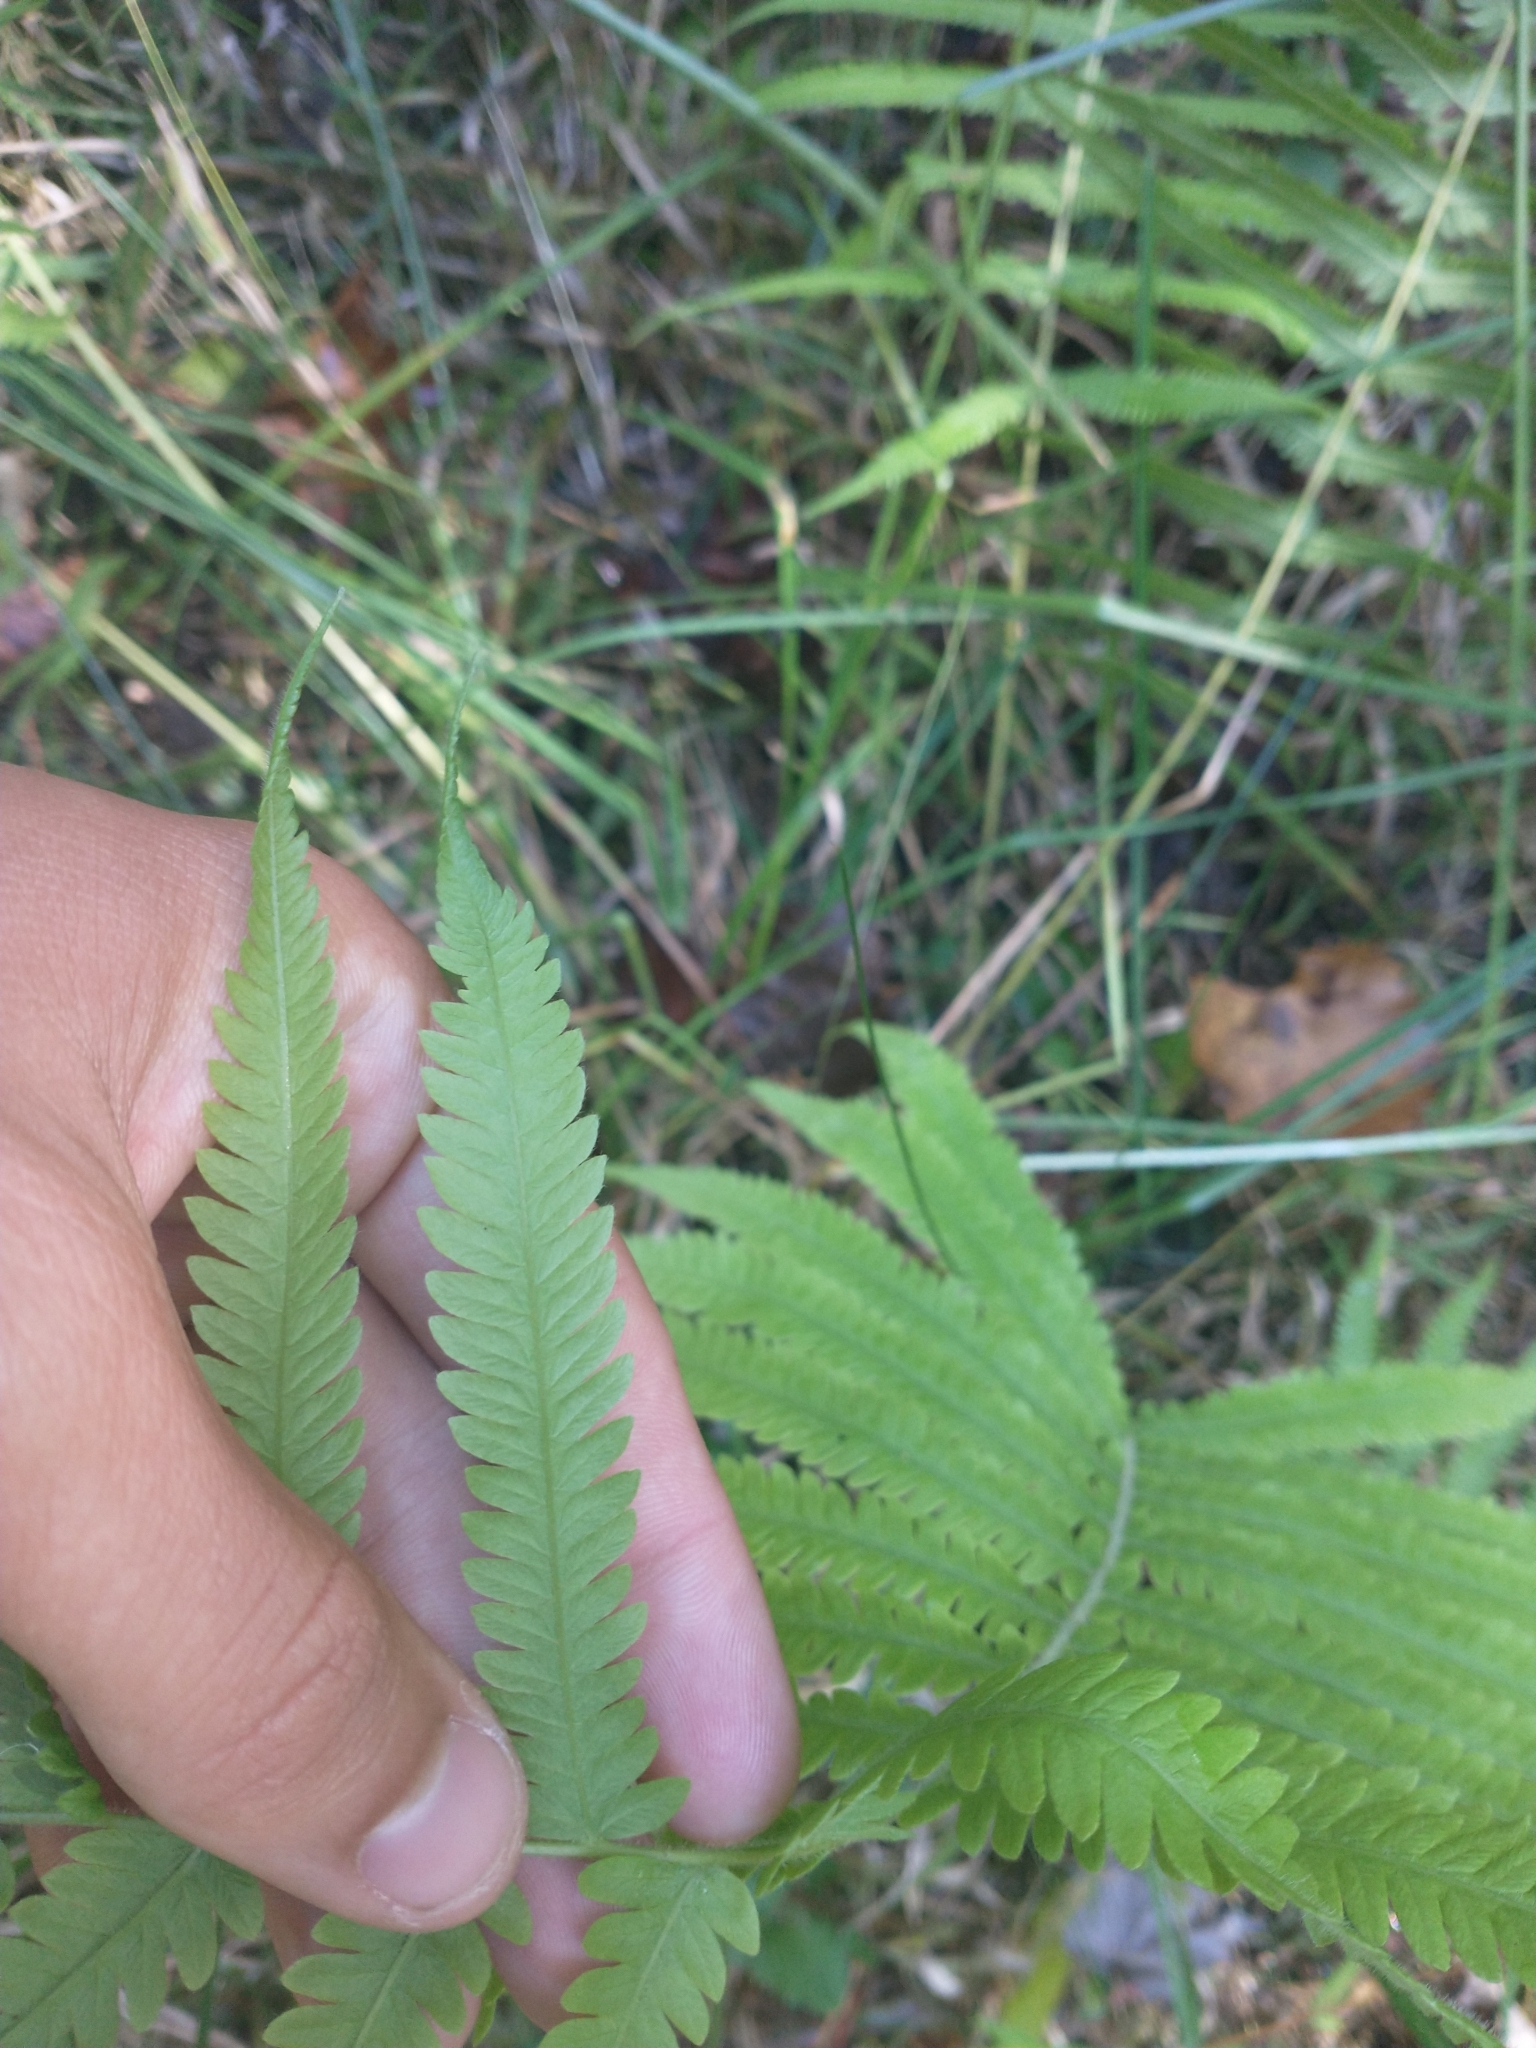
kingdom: Plantae
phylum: Tracheophyta
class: Polypodiopsida
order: Polypodiales
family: Thelypteridaceae
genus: Pelazoneuron
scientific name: Pelazoneuron kunthii
